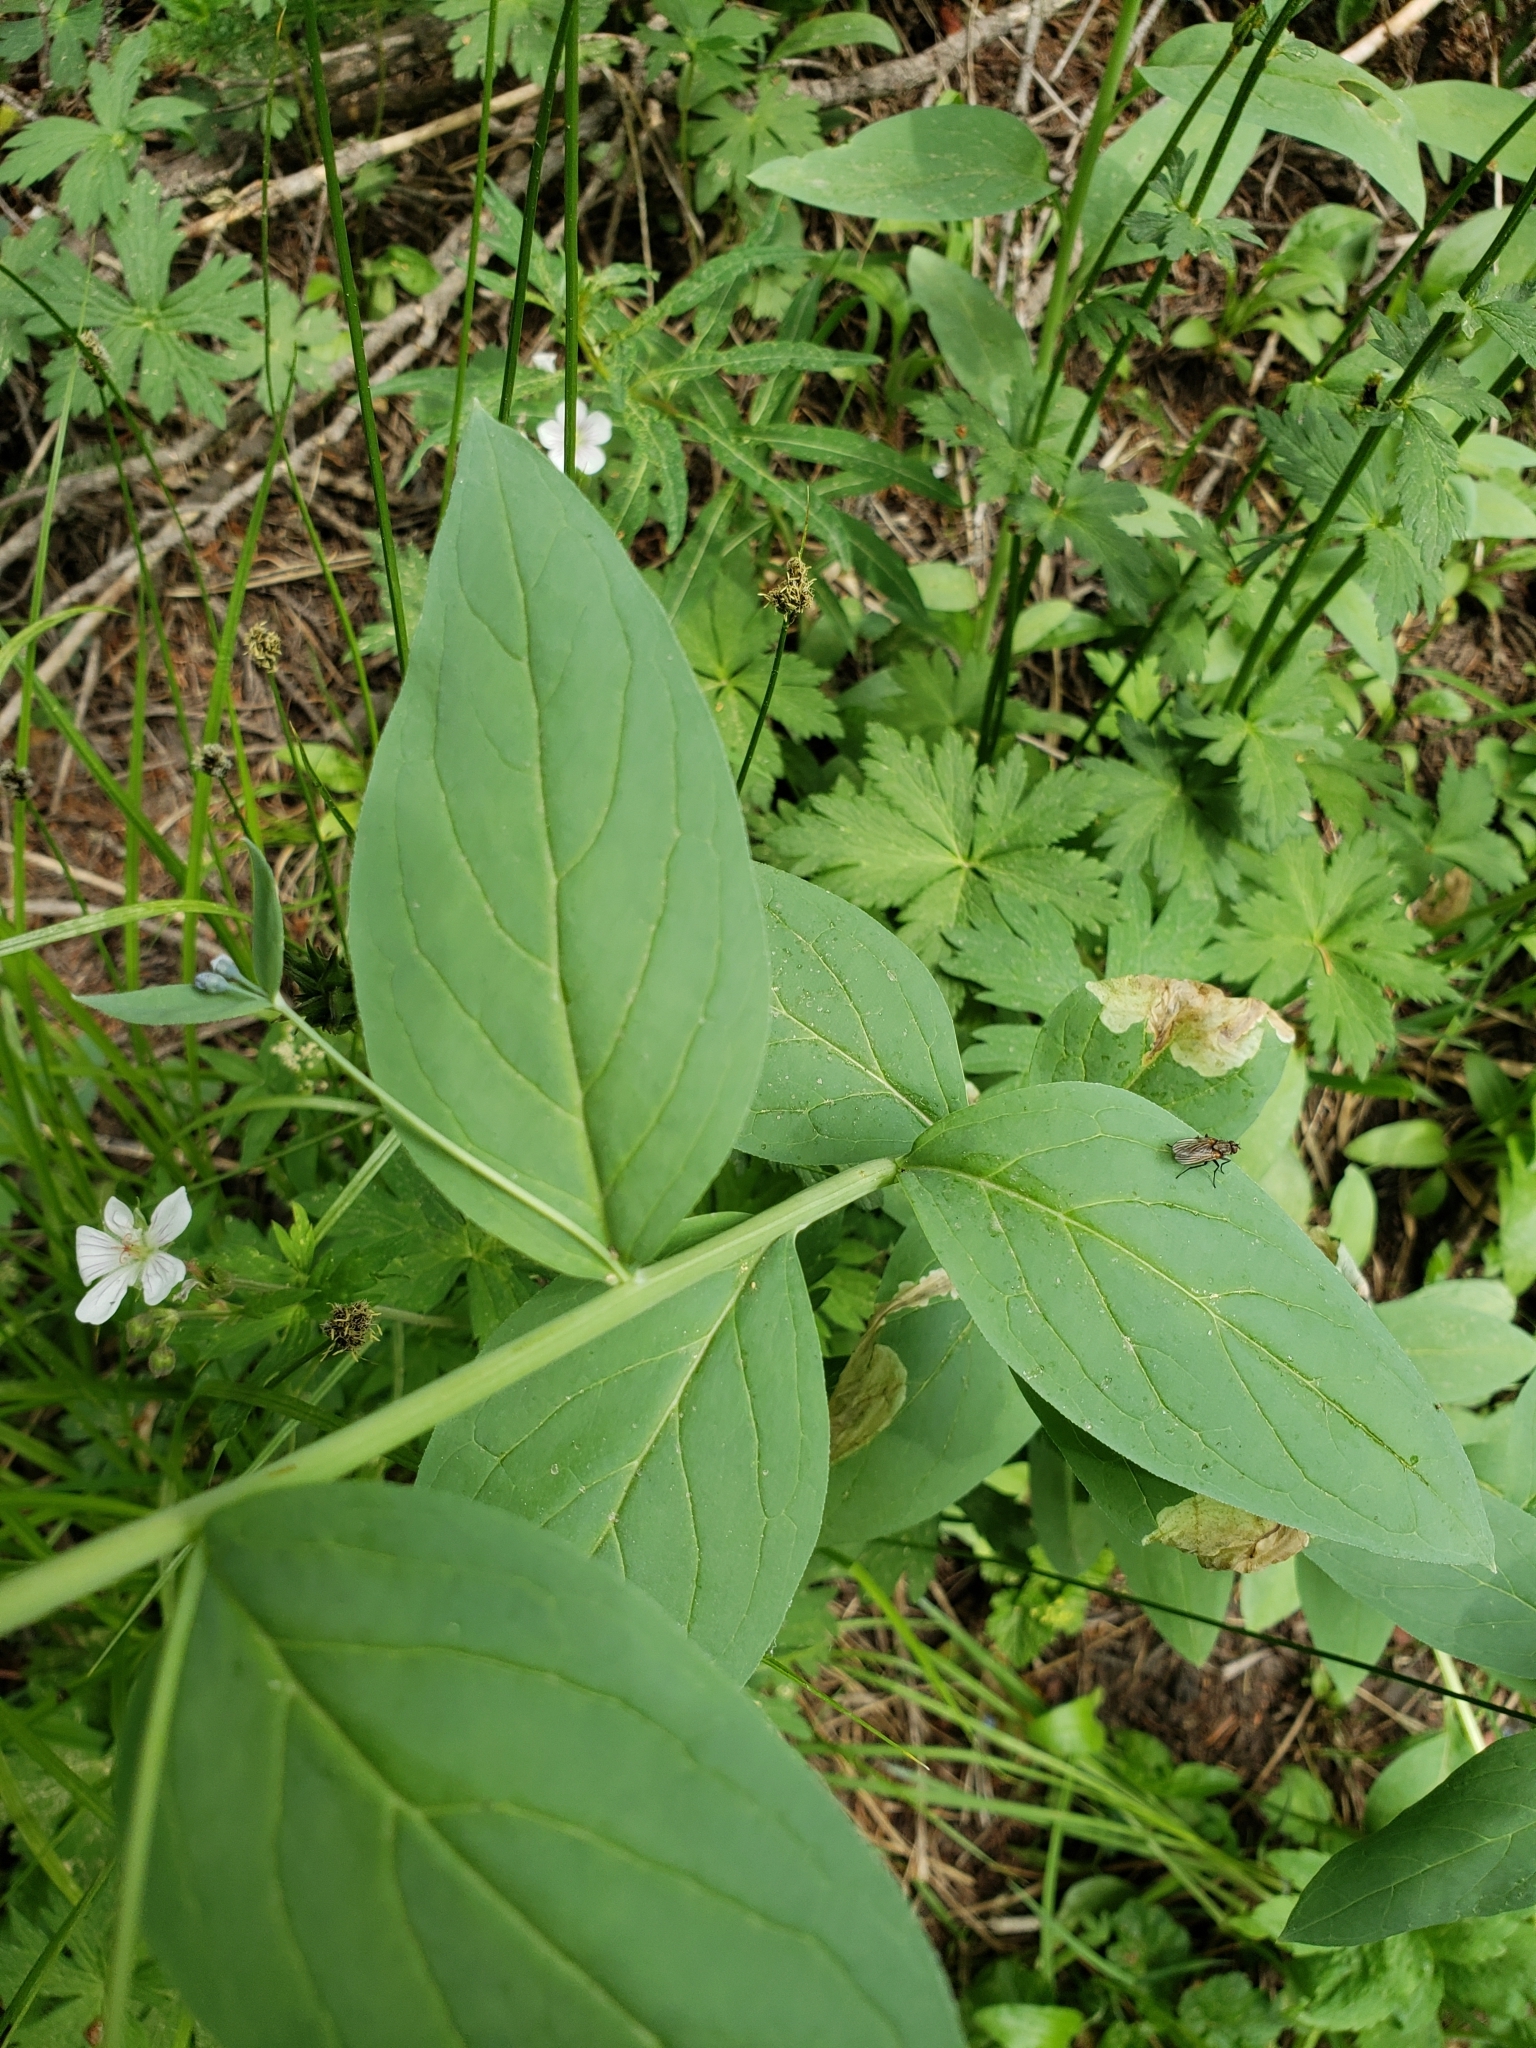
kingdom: Plantae
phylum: Tracheophyta
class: Magnoliopsida
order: Boraginales
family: Boraginaceae
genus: Mertensia
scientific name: Mertensia ciliata
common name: Tall chiming-bells
